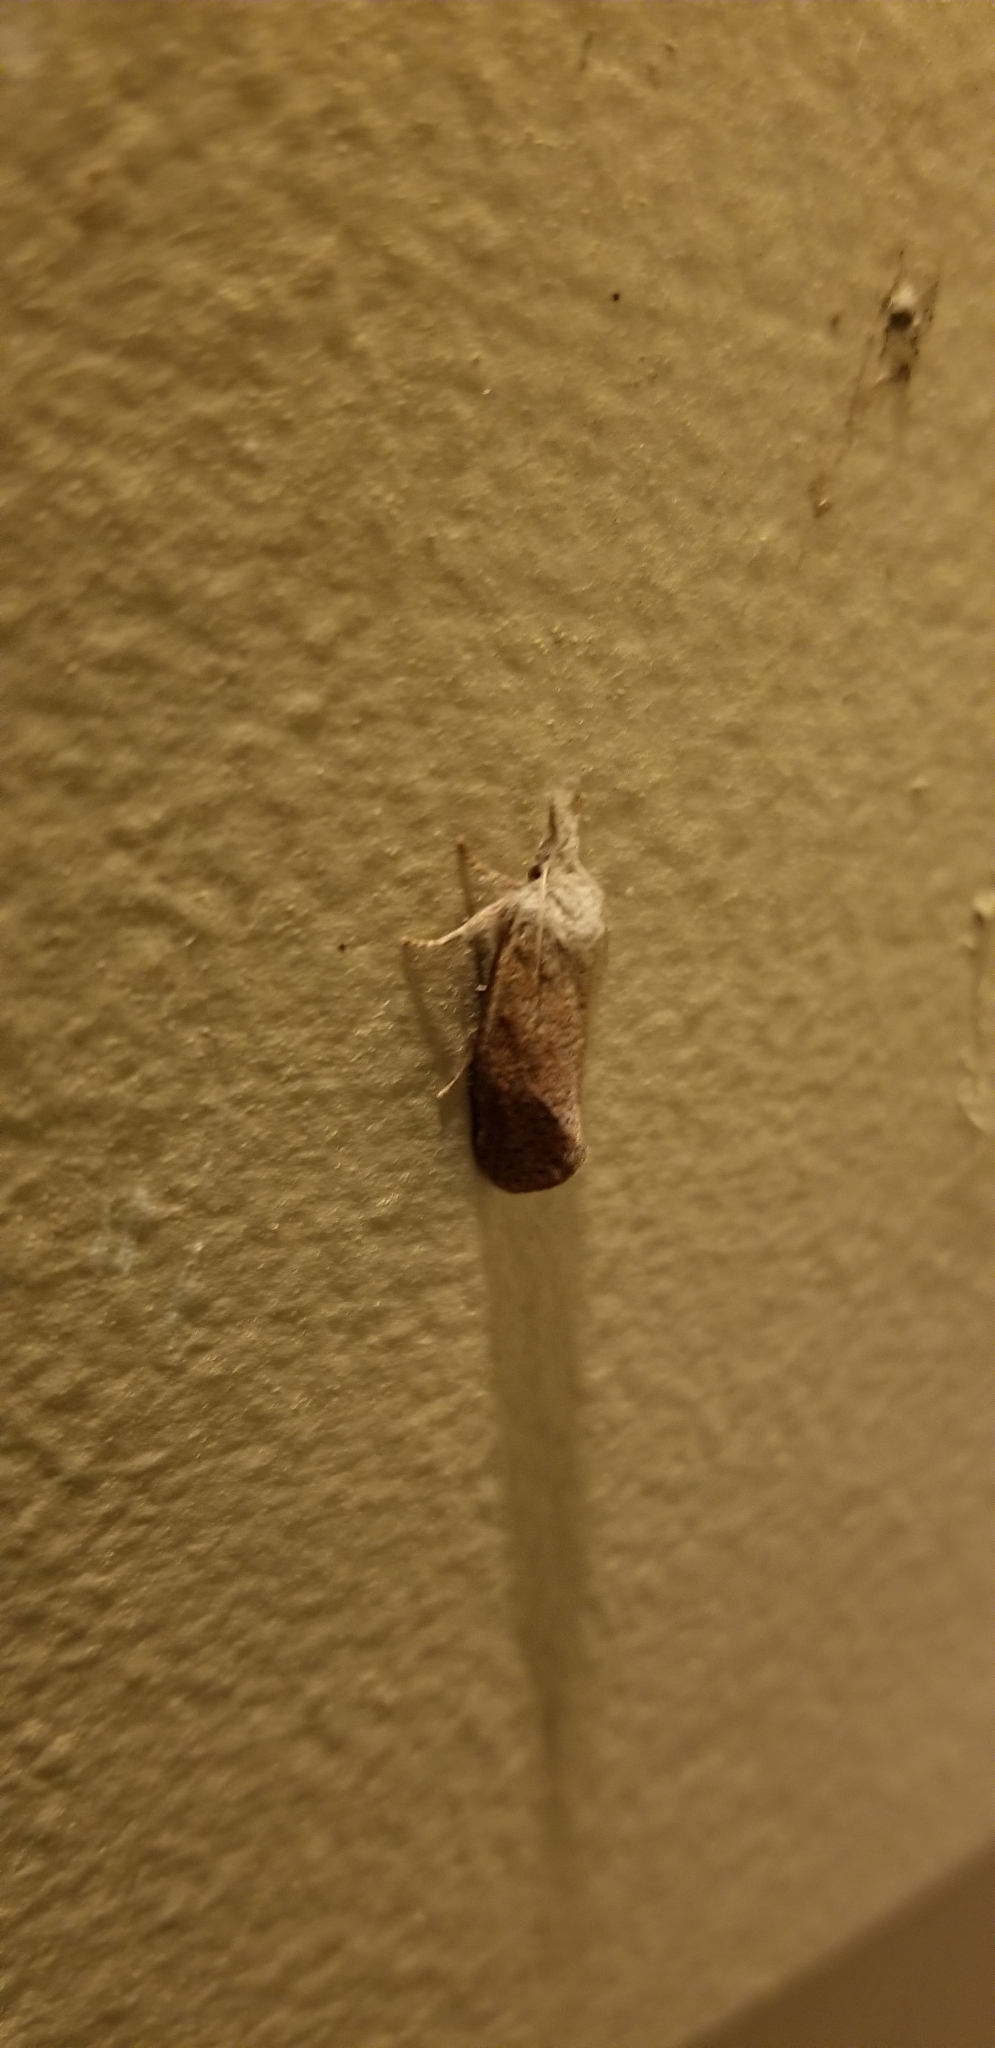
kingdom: Animalia
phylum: Arthropoda
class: Insecta
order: Lepidoptera
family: Tineidae
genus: Acrolophus
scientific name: Acrolophus plumifrontella
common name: Eastern grass tubeworm moth
